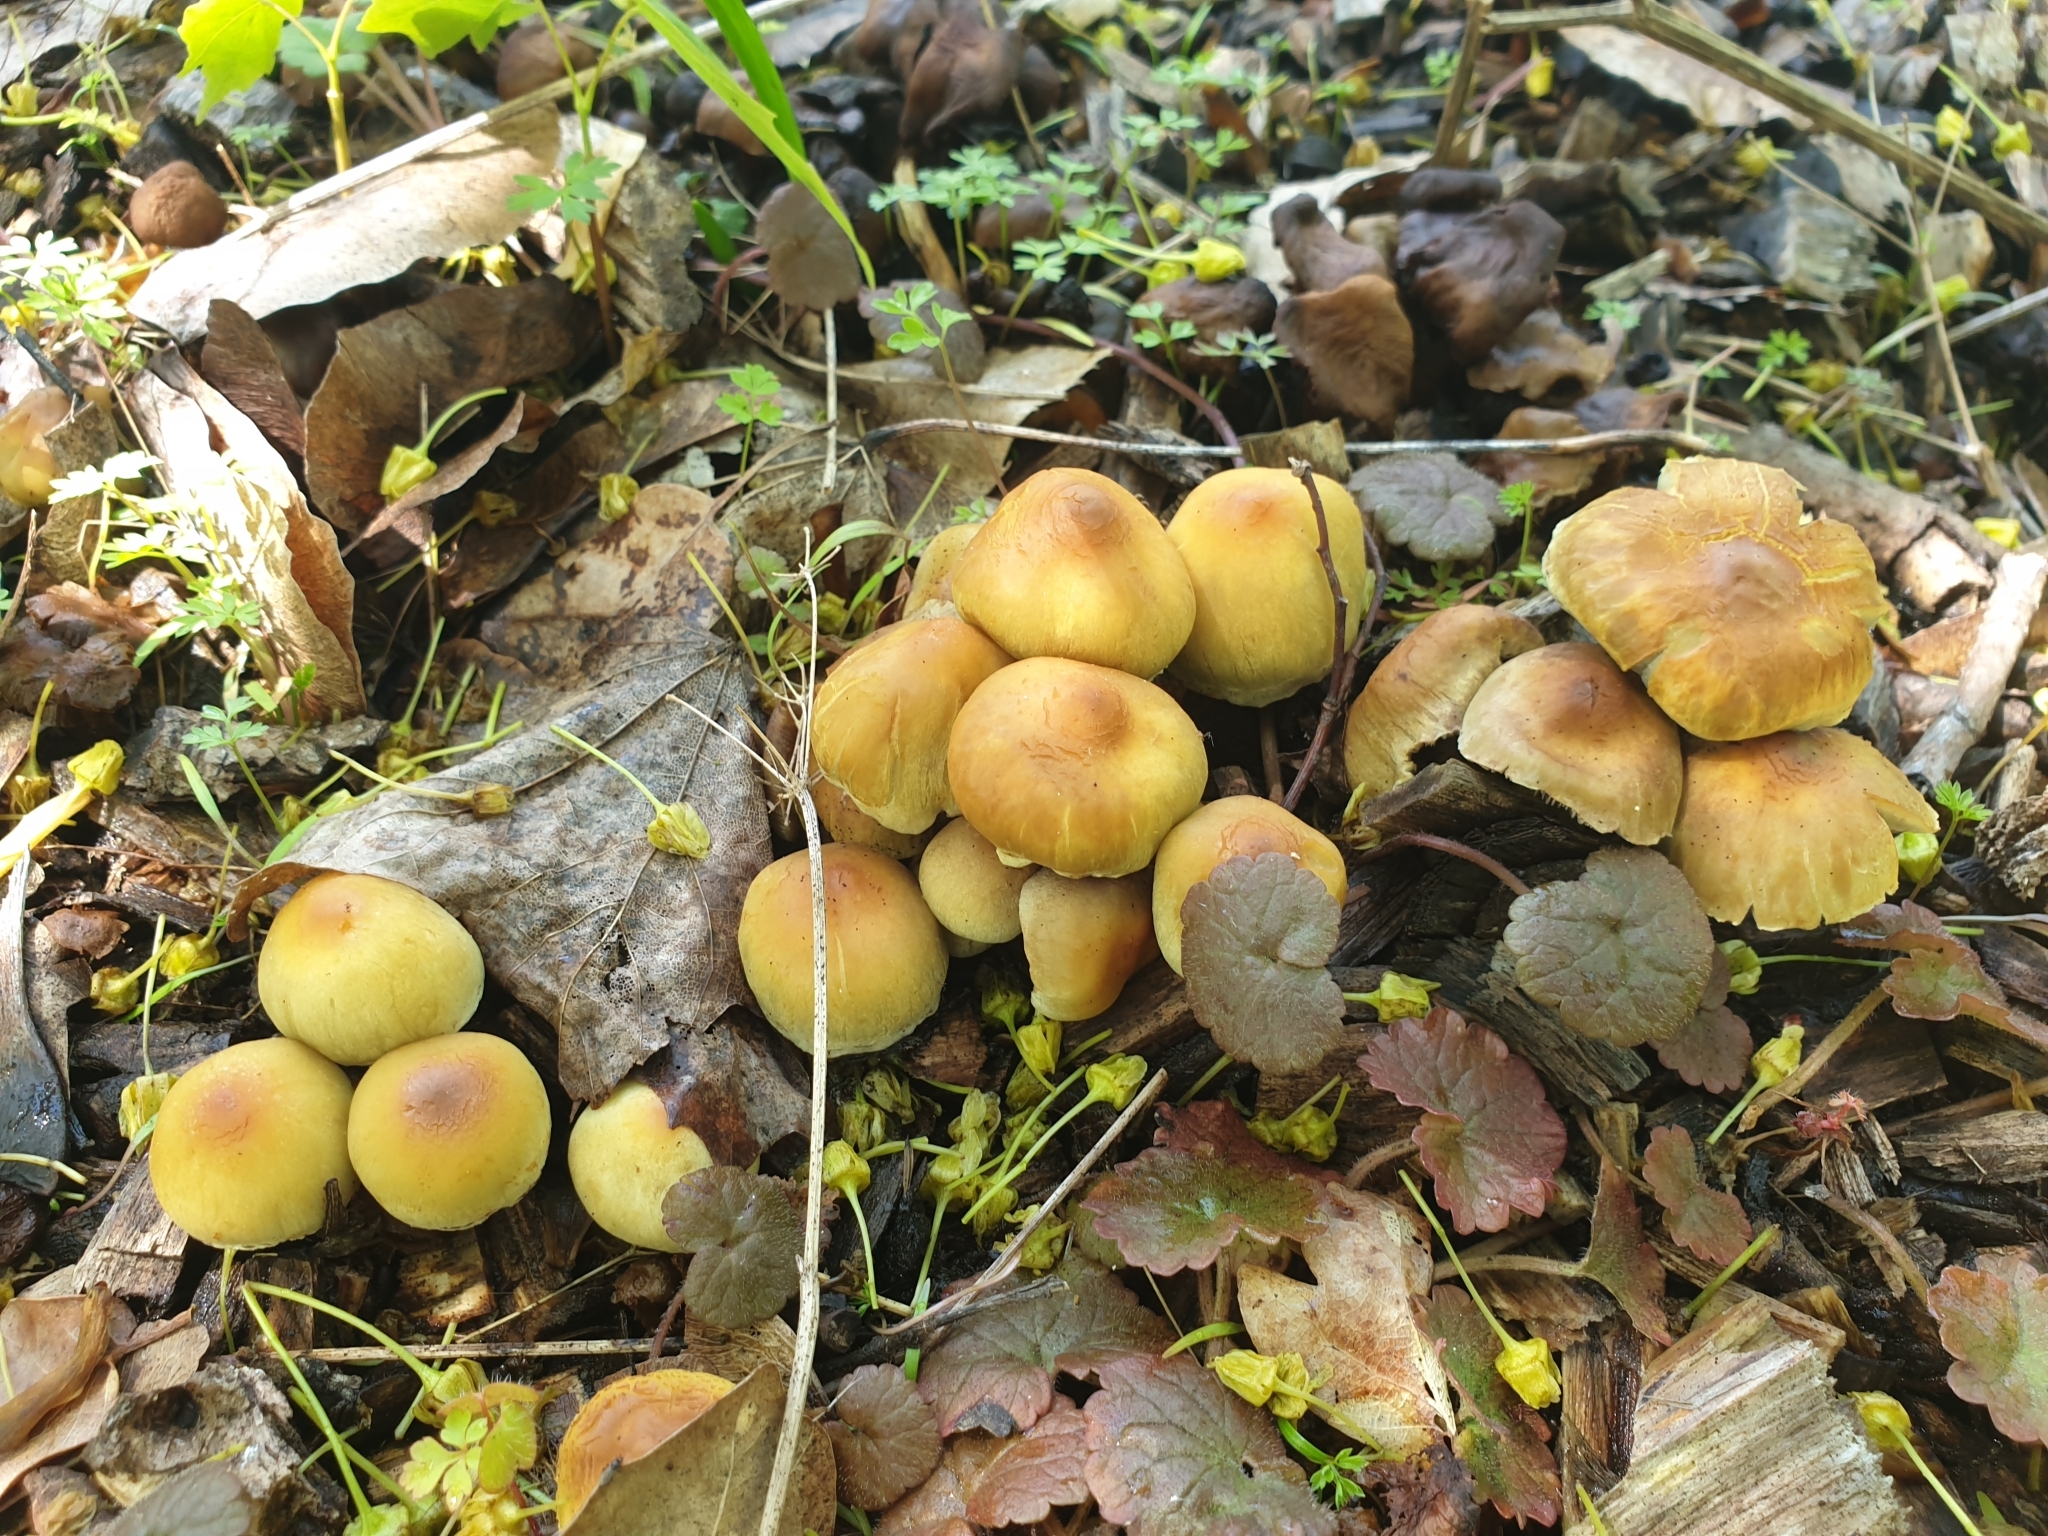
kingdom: Fungi
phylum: Basidiomycota
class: Agaricomycetes
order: Agaricales
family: Strophariaceae
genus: Hypholoma
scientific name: Hypholoma fasciculare
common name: Sulphur tuft
